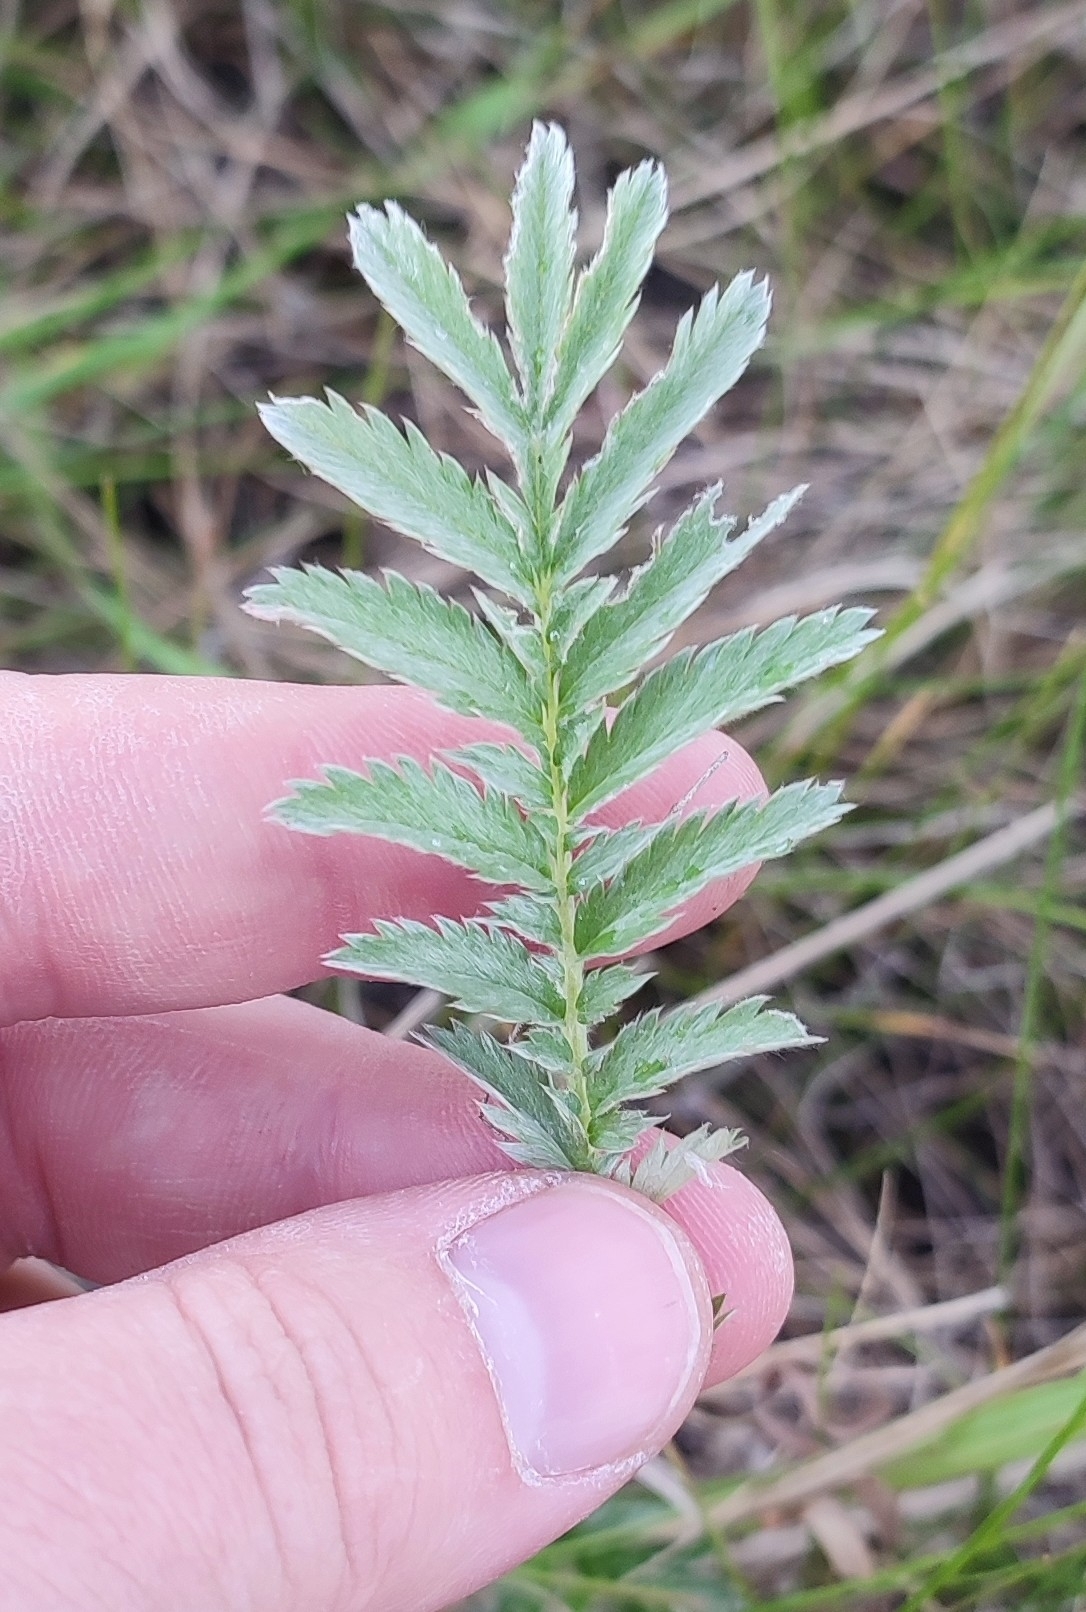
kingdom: Plantae
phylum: Tracheophyta
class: Magnoliopsida
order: Rosales
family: Rosaceae
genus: Argentina
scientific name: Argentina anserina
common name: Common silverweed
